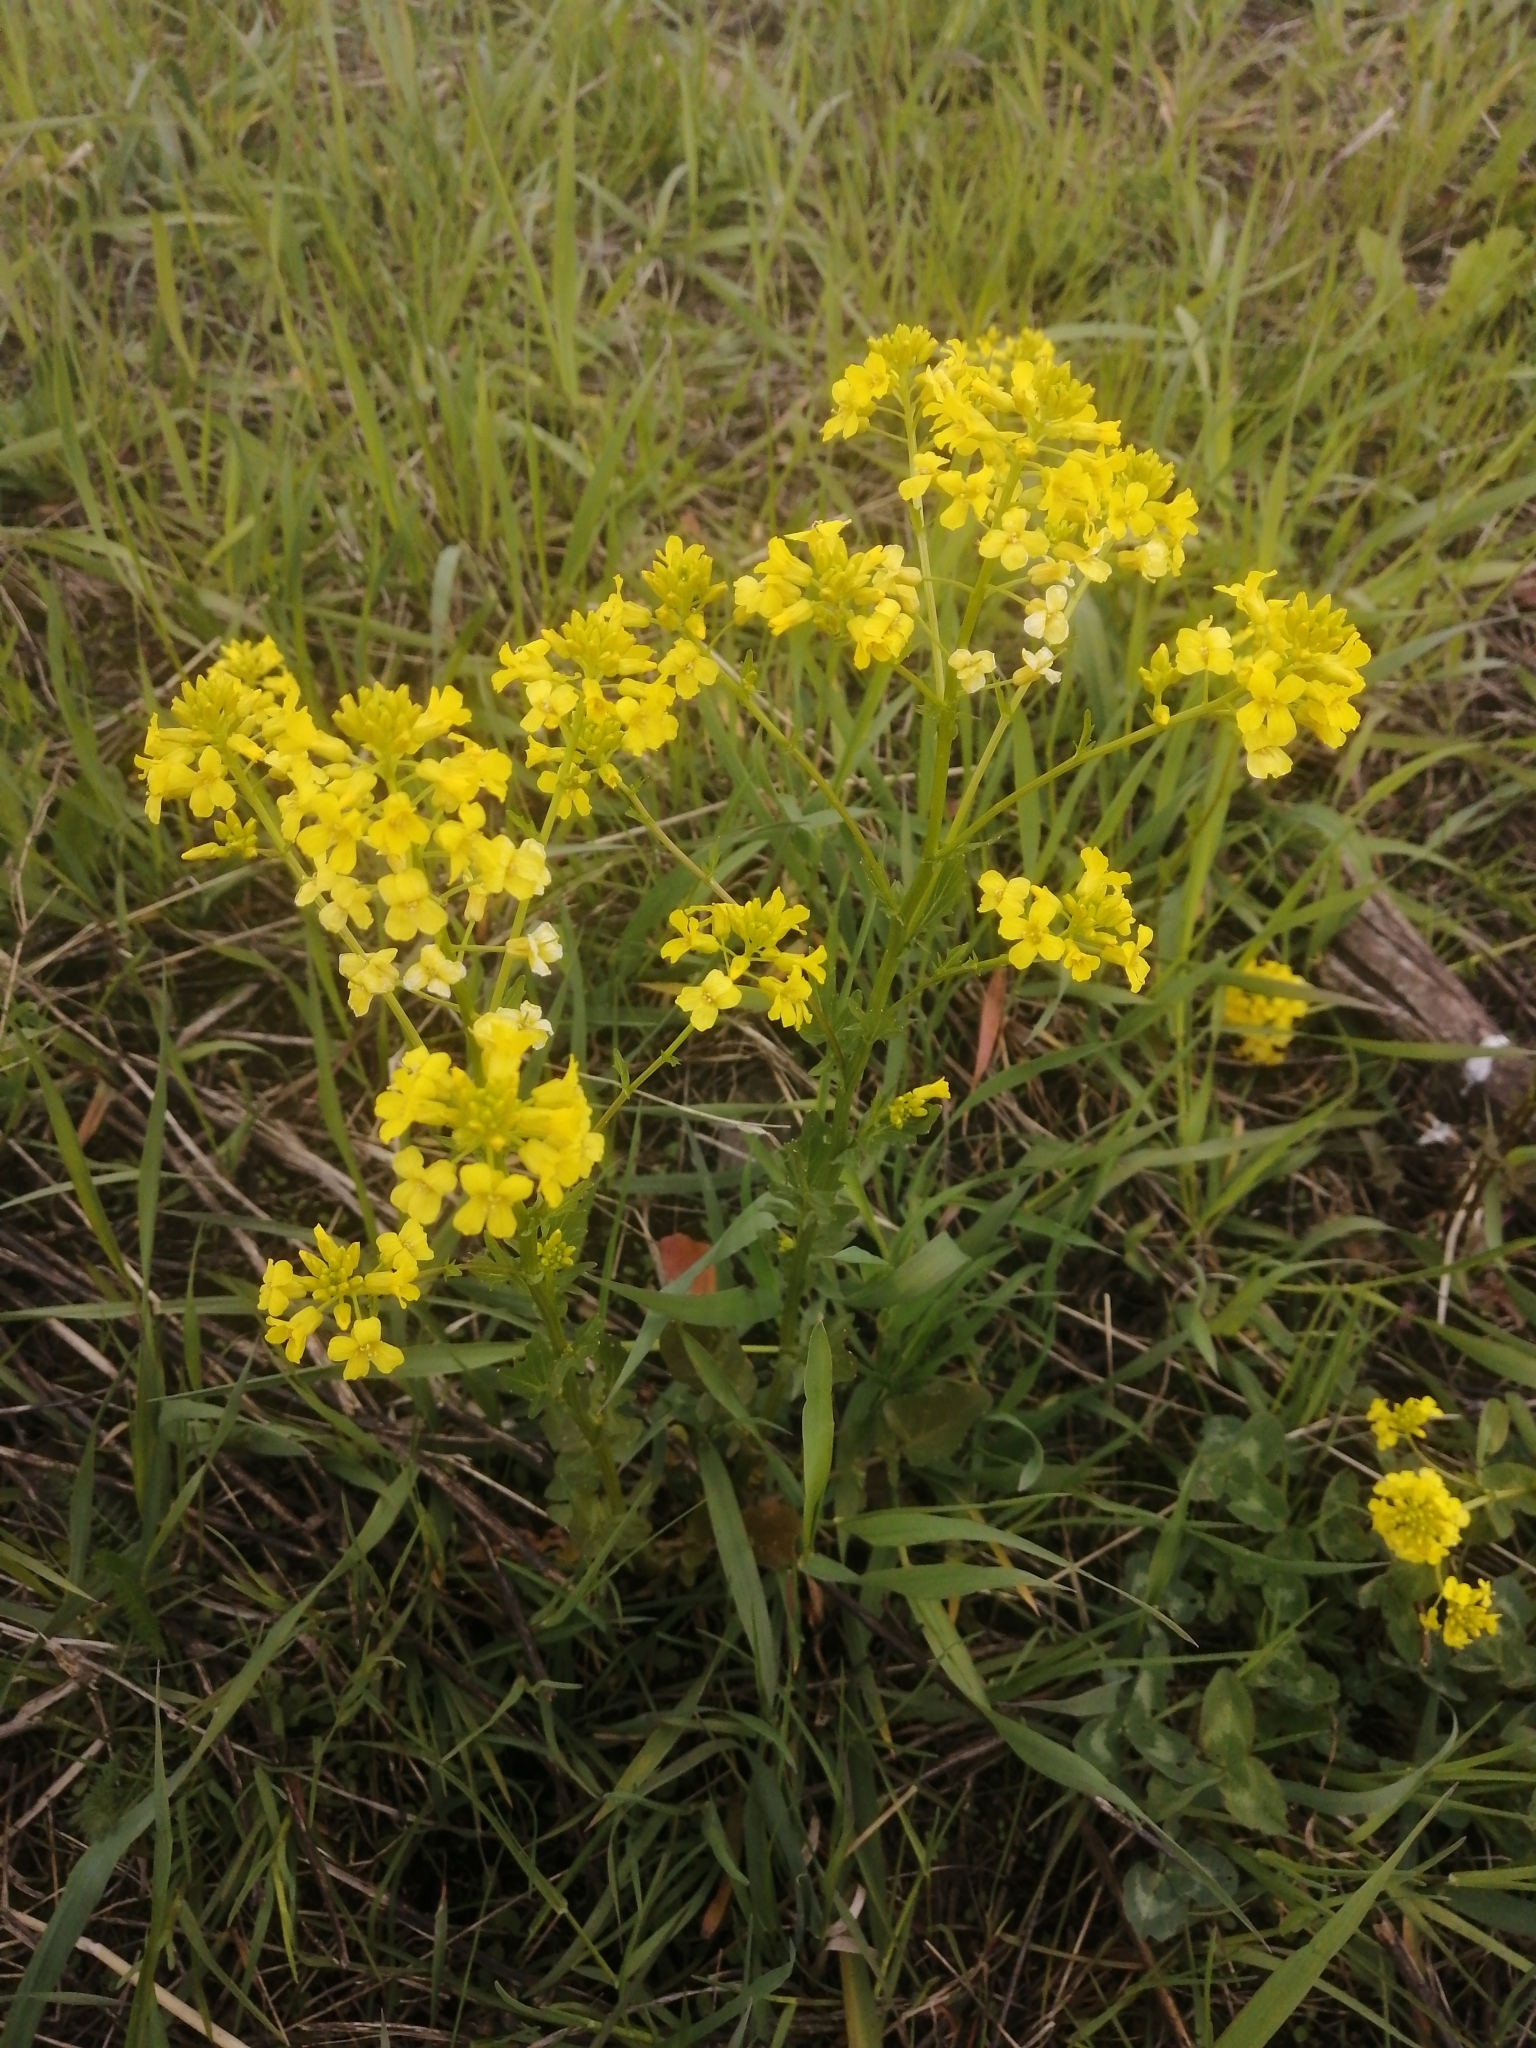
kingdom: Plantae
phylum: Tracheophyta
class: Magnoliopsida
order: Brassicales
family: Brassicaceae
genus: Barbarea
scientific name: Barbarea vulgaris
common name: Cressy-greens
